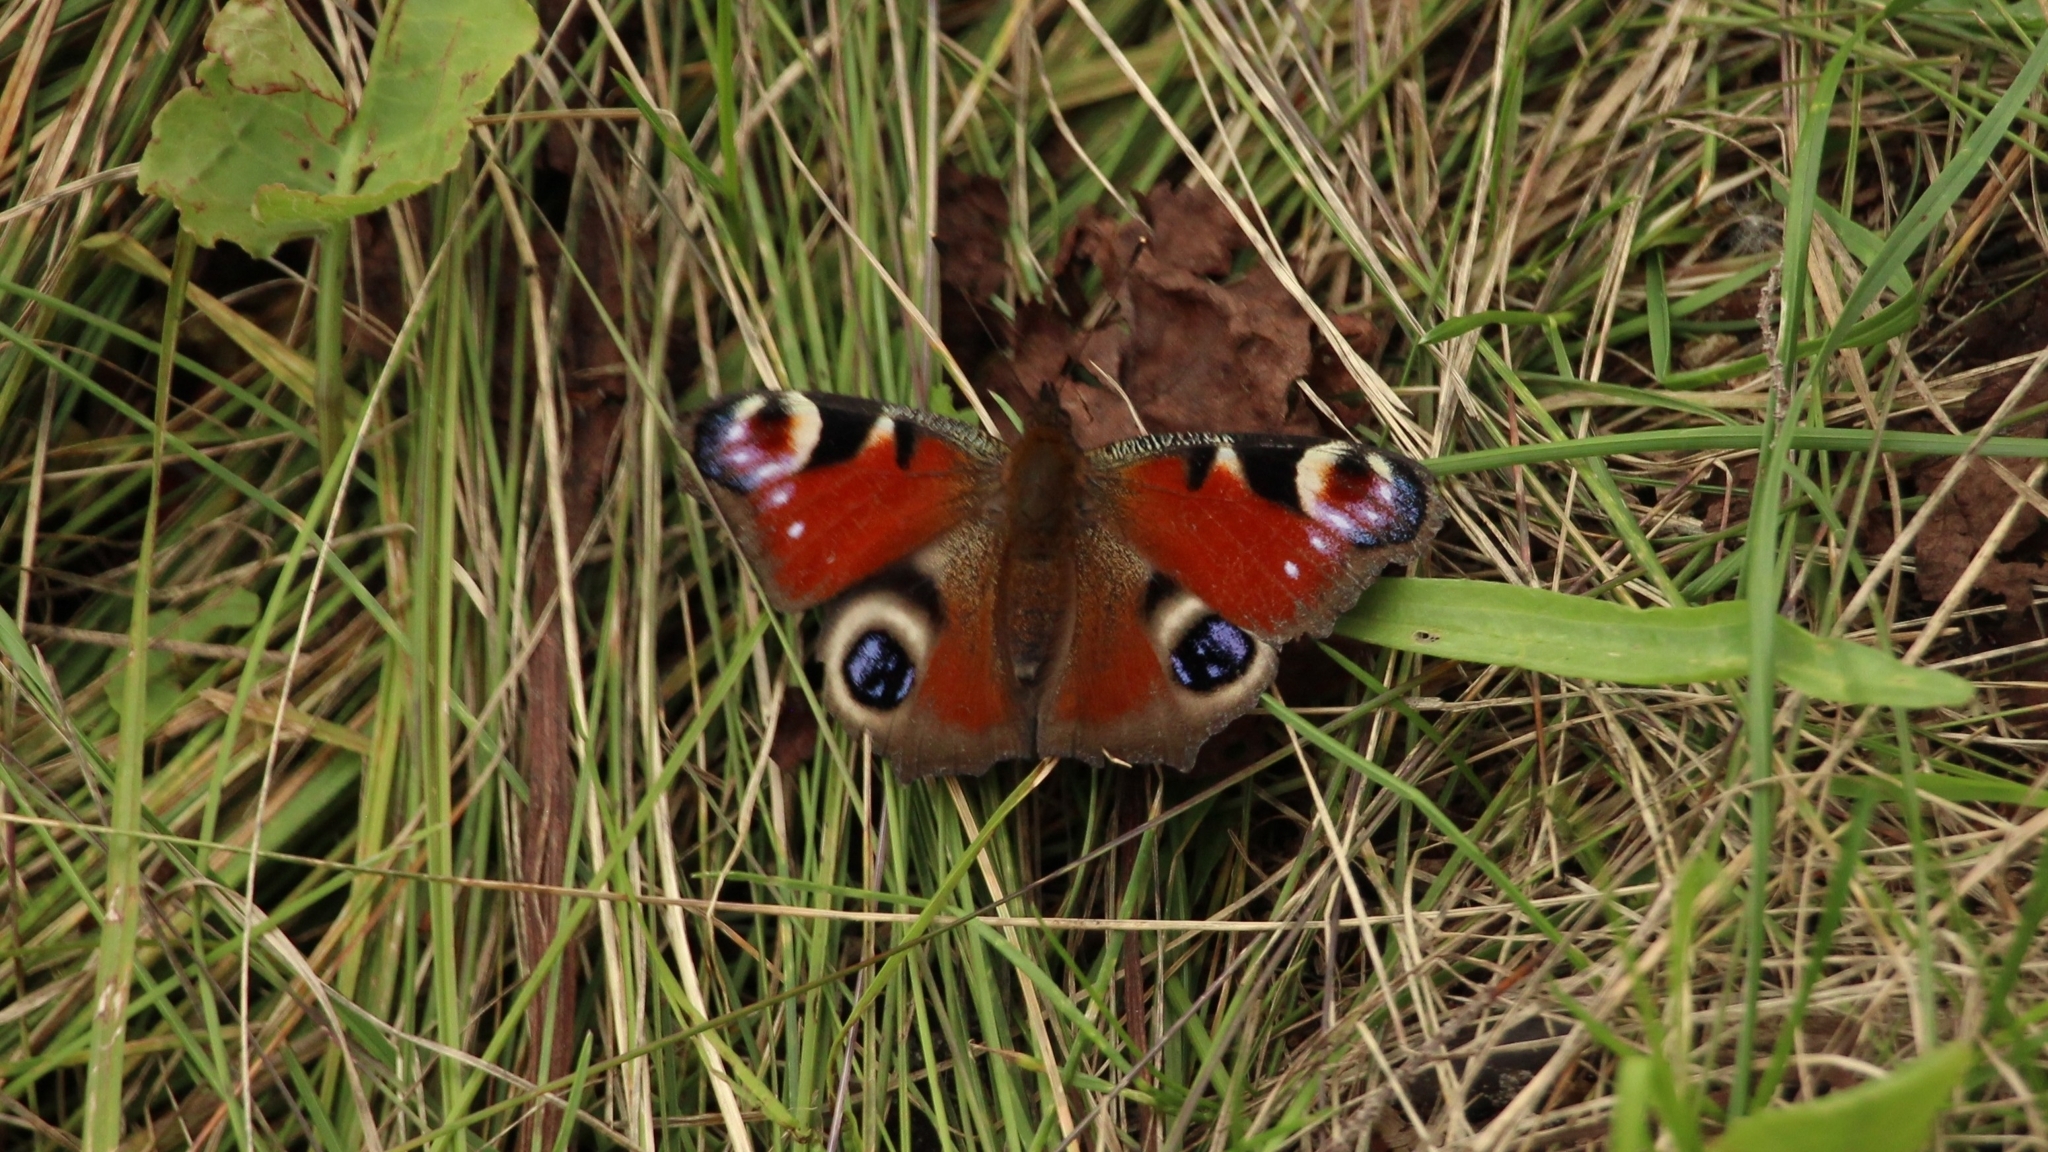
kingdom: Animalia
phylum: Arthropoda
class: Insecta
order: Lepidoptera
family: Nymphalidae
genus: Aglais
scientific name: Aglais io
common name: Peacock
